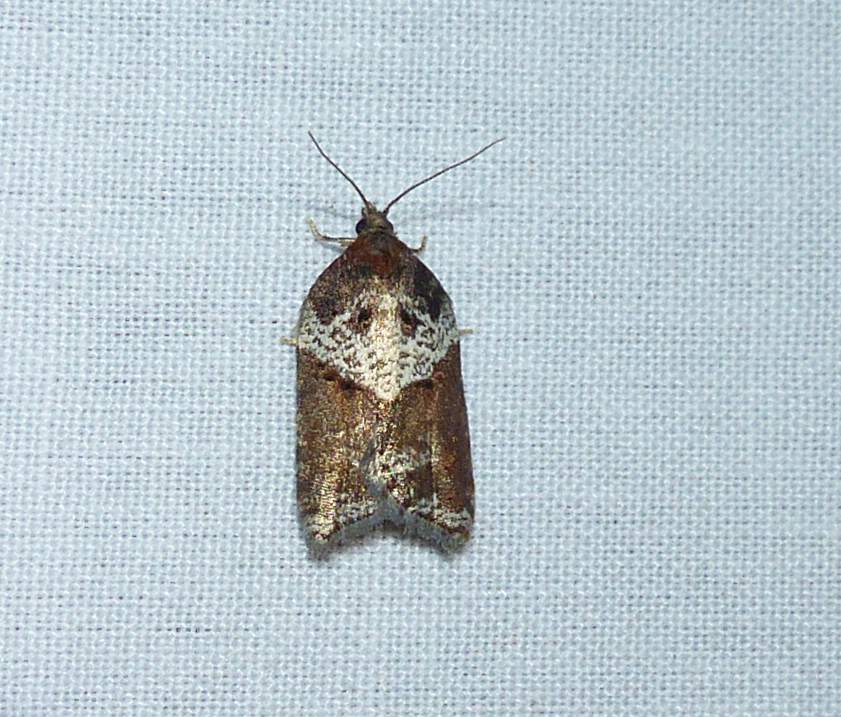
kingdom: Animalia
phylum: Arthropoda
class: Insecta
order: Lepidoptera
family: Tortricidae
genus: Acleris
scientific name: Acleris macdunnoughi
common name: Macdunnough's acleris
